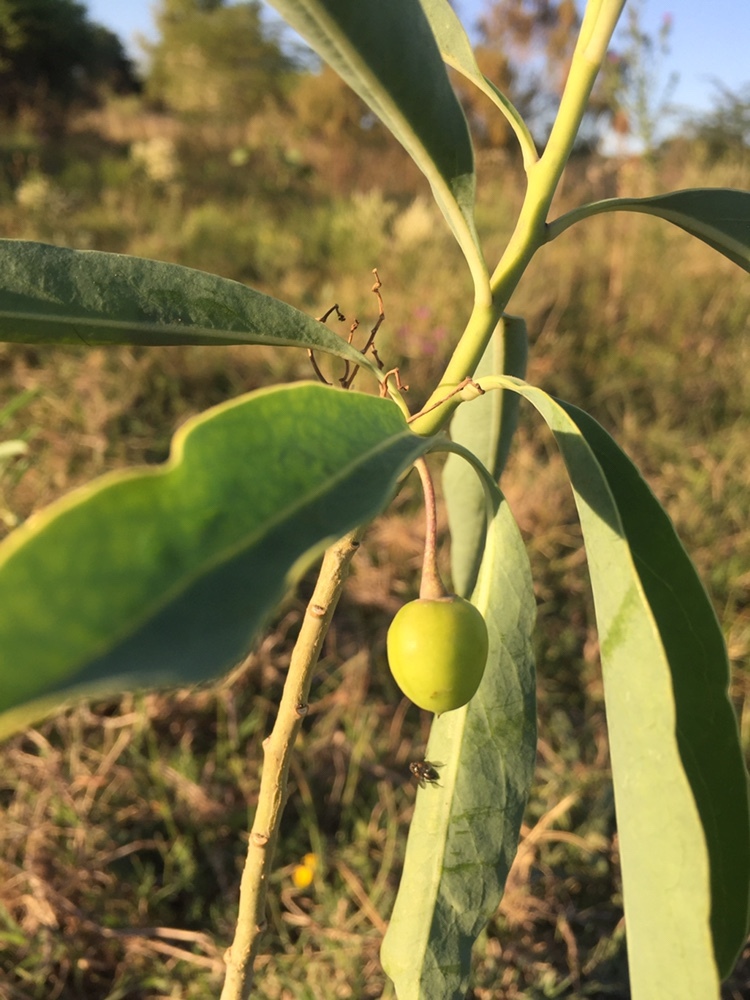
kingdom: Plantae
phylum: Tracheophyta
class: Magnoliopsida
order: Solanales
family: Solanaceae
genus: Solanum
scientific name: Solanum glaucophyllum
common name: Waxyleaf nightshade
